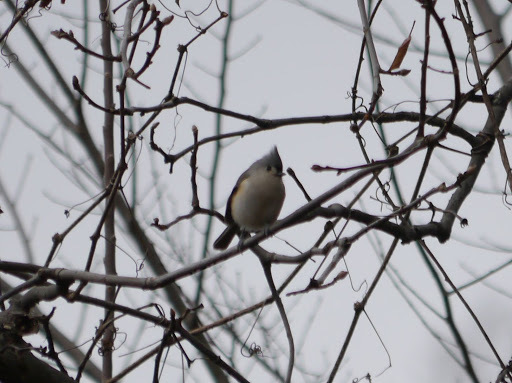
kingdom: Animalia
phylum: Chordata
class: Aves
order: Passeriformes
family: Paridae
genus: Baeolophus
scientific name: Baeolophus bicolor
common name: Tufted titmouse
